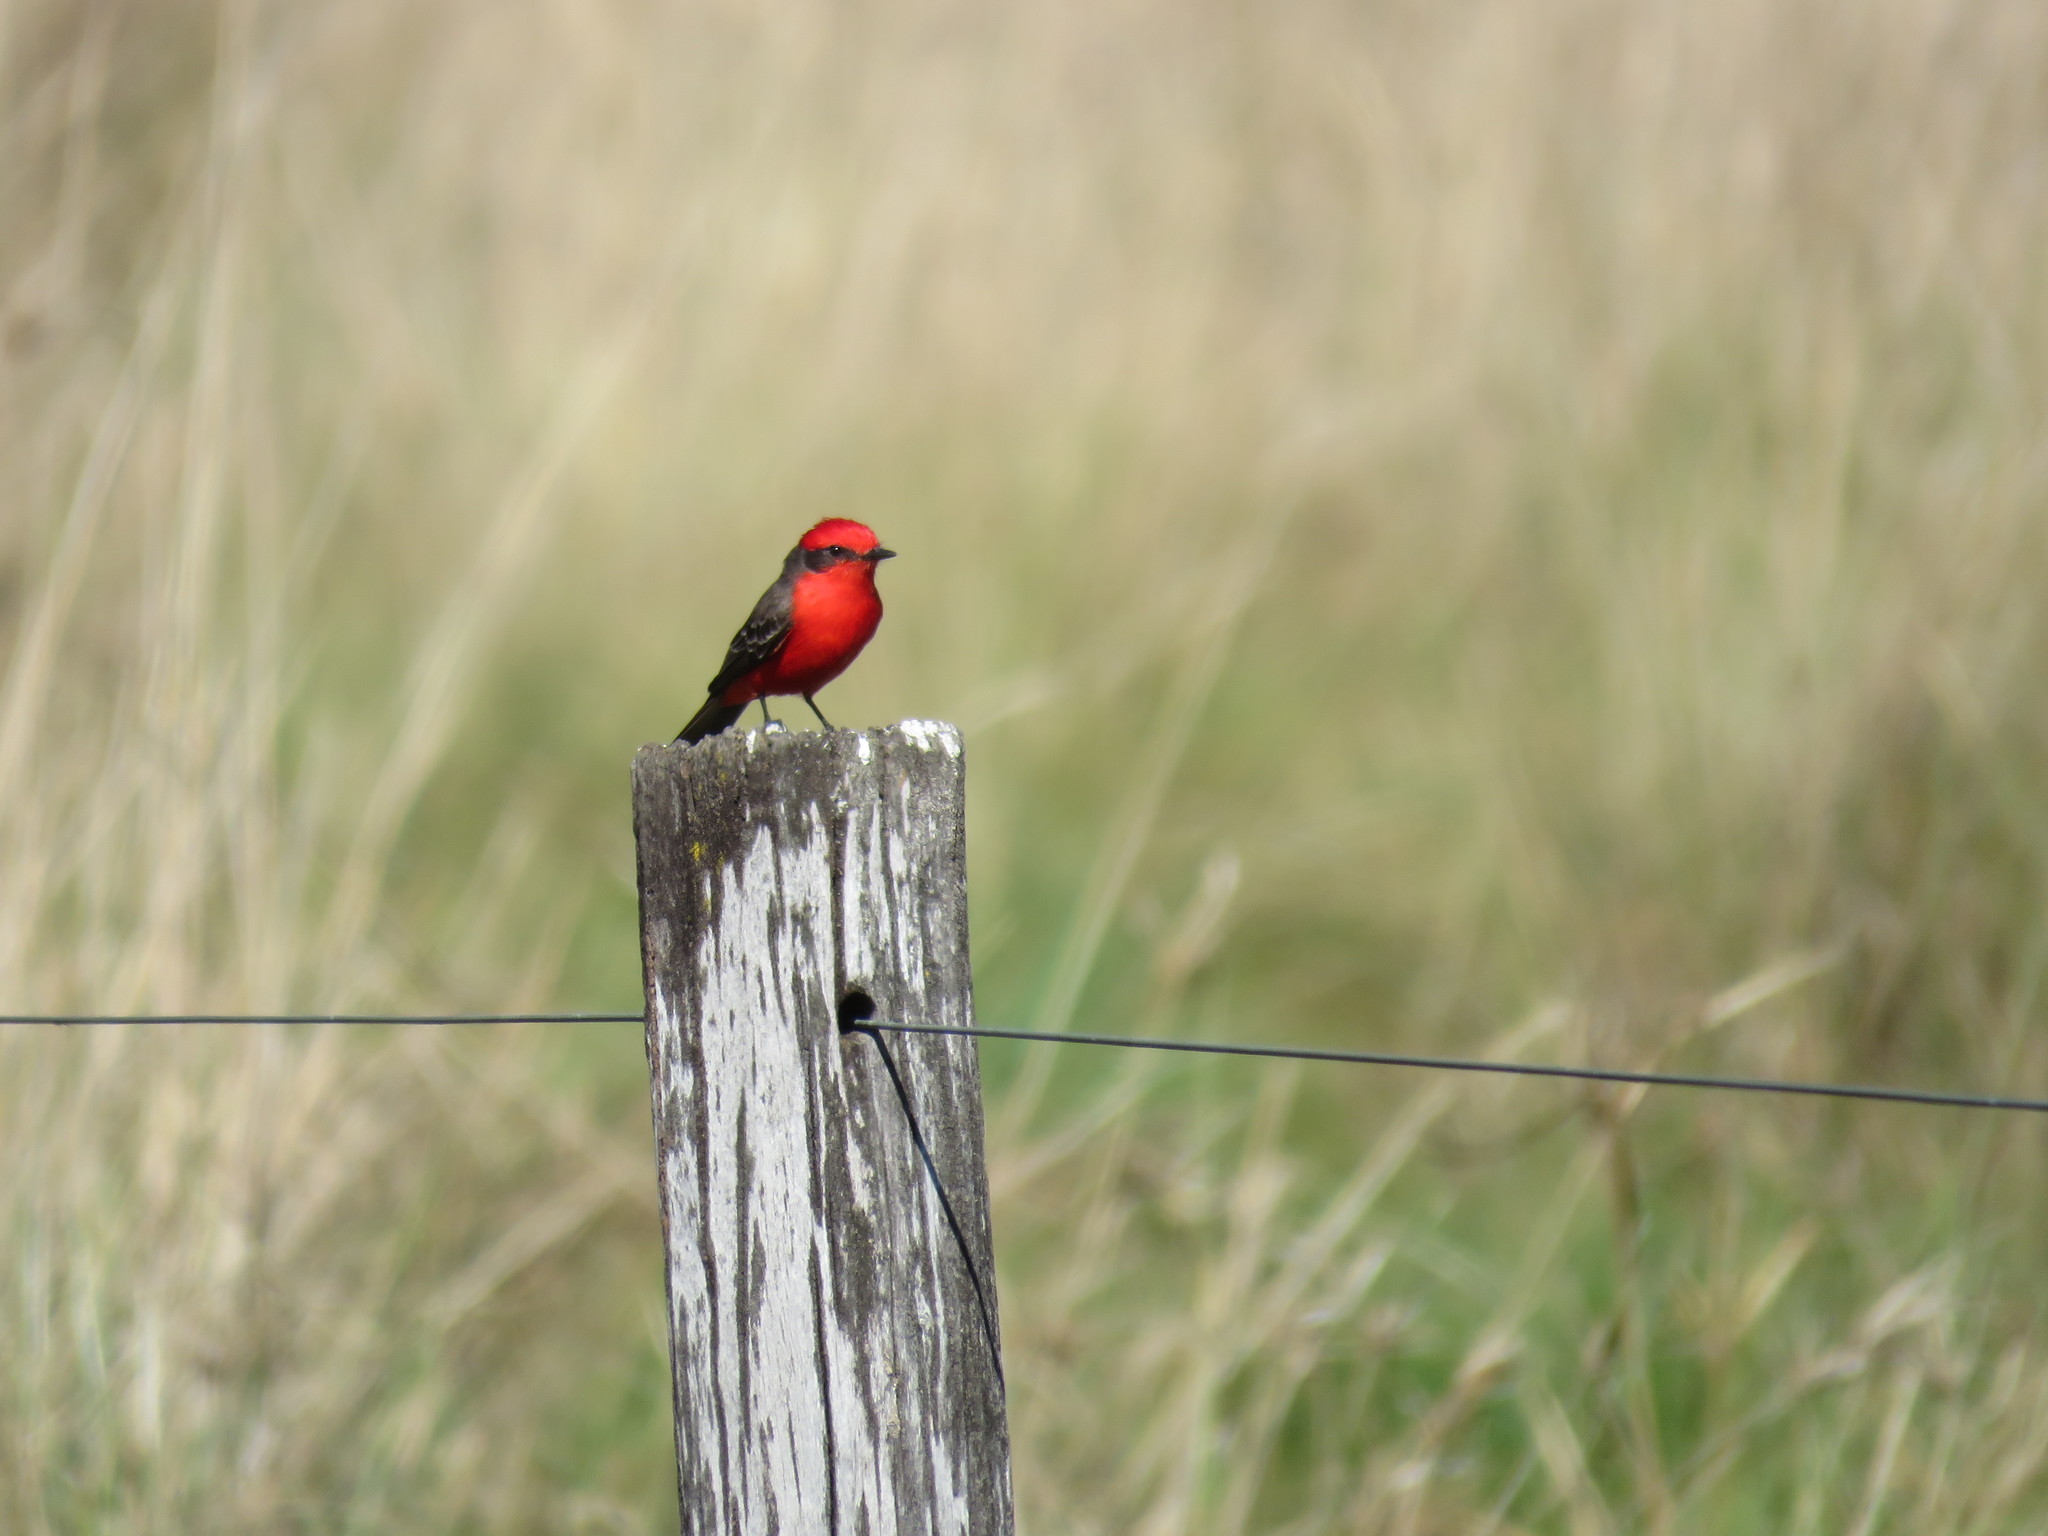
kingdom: Animalia
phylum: Chordata
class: Aves
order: Passeriformes
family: Tyrannidae
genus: Pyrocephalus
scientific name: Pyrocephalus rubinus
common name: Vermilion flycatcher
